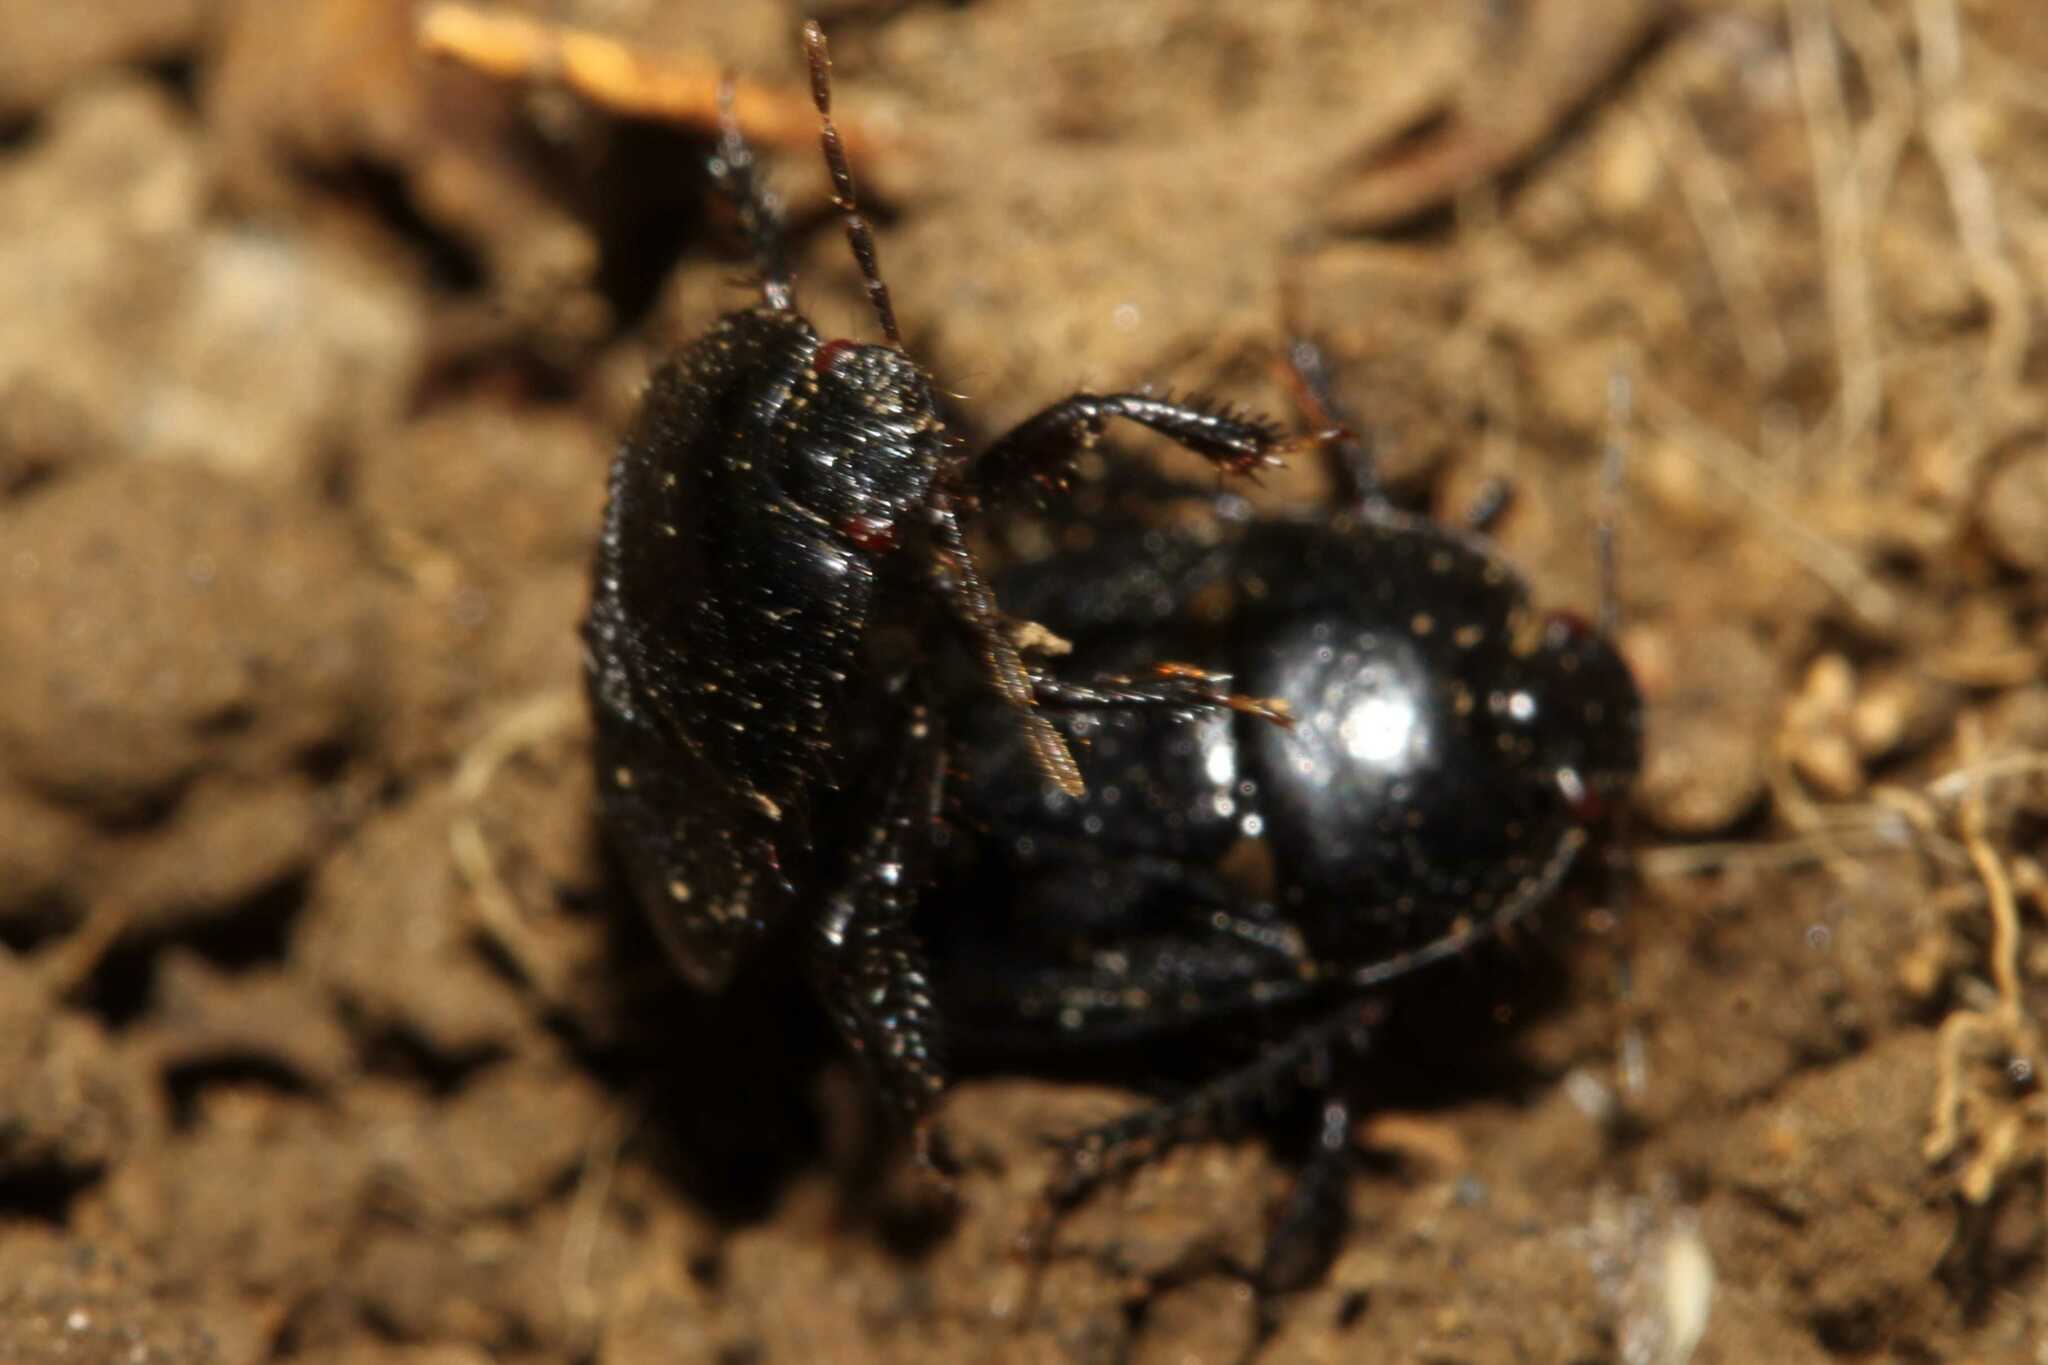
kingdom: Animalia
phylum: Arthropoda
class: Insecta
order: Hemiptera
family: Cydnidae
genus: Pangaeus
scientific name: Pangaeus bilineatus
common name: Burrower bug
